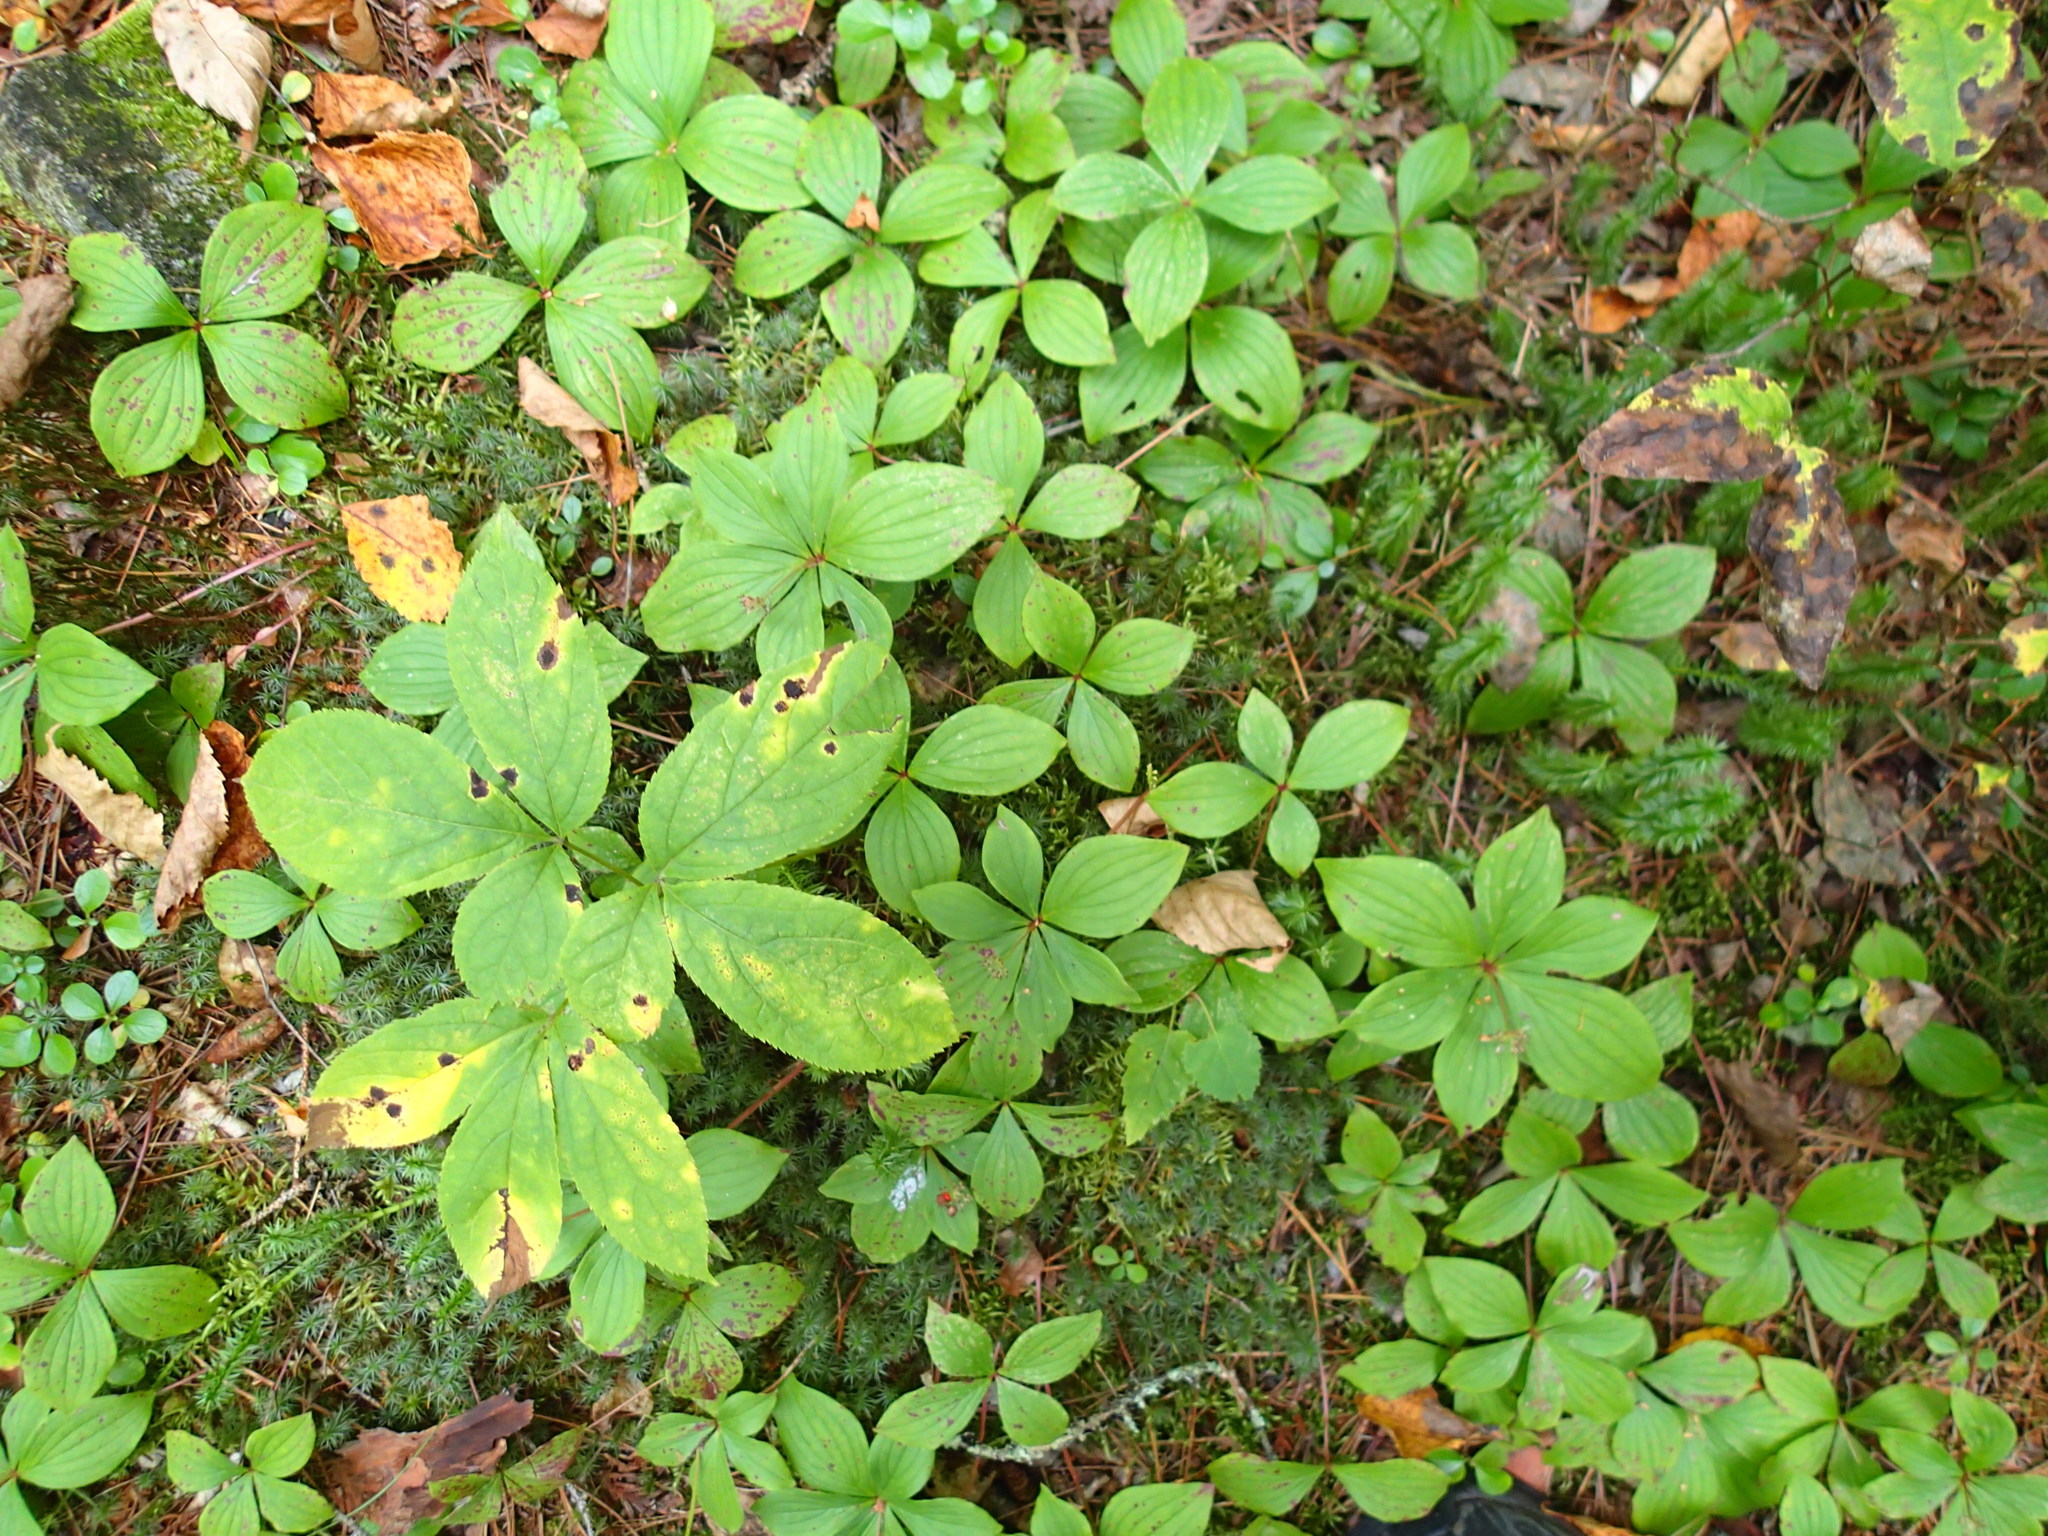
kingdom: Plantae
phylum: Tracheophyta
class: Magnoliopsida
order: Cornales
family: Cornaceae
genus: Cornus
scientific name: Cornus canadensis
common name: Creeping dogwood
